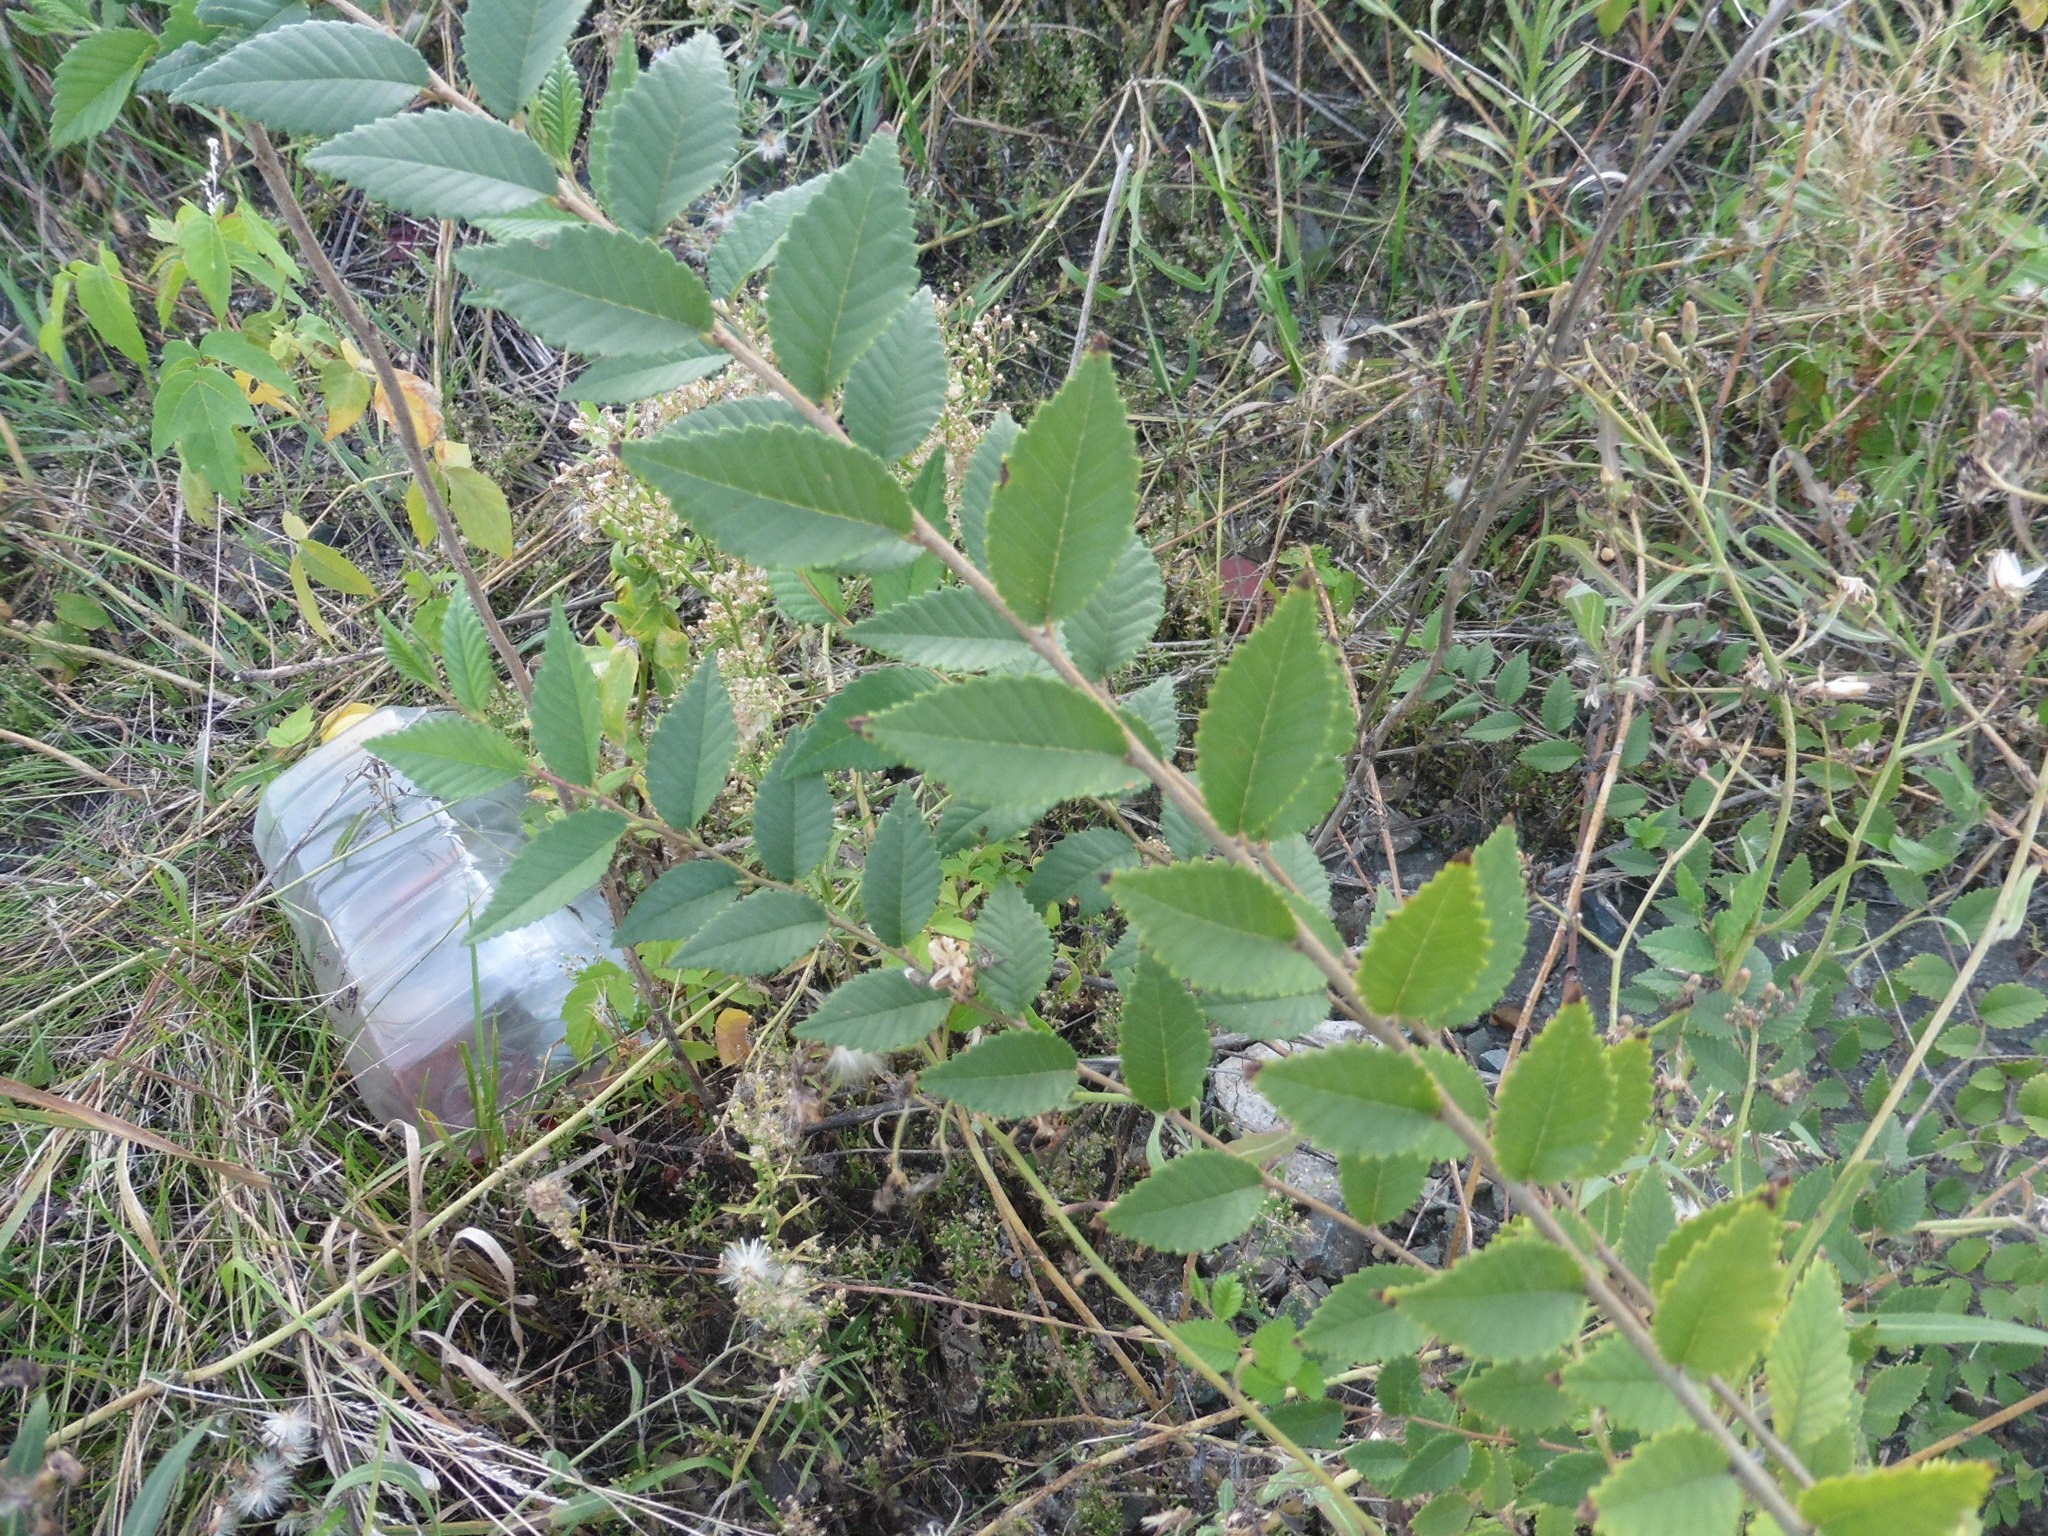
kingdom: Plantae
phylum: Tracheophyta
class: Magnoliopsida
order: Rosales
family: Ulmaceae
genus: Ulmus
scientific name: Ulmus pumila
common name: Siberian elm
